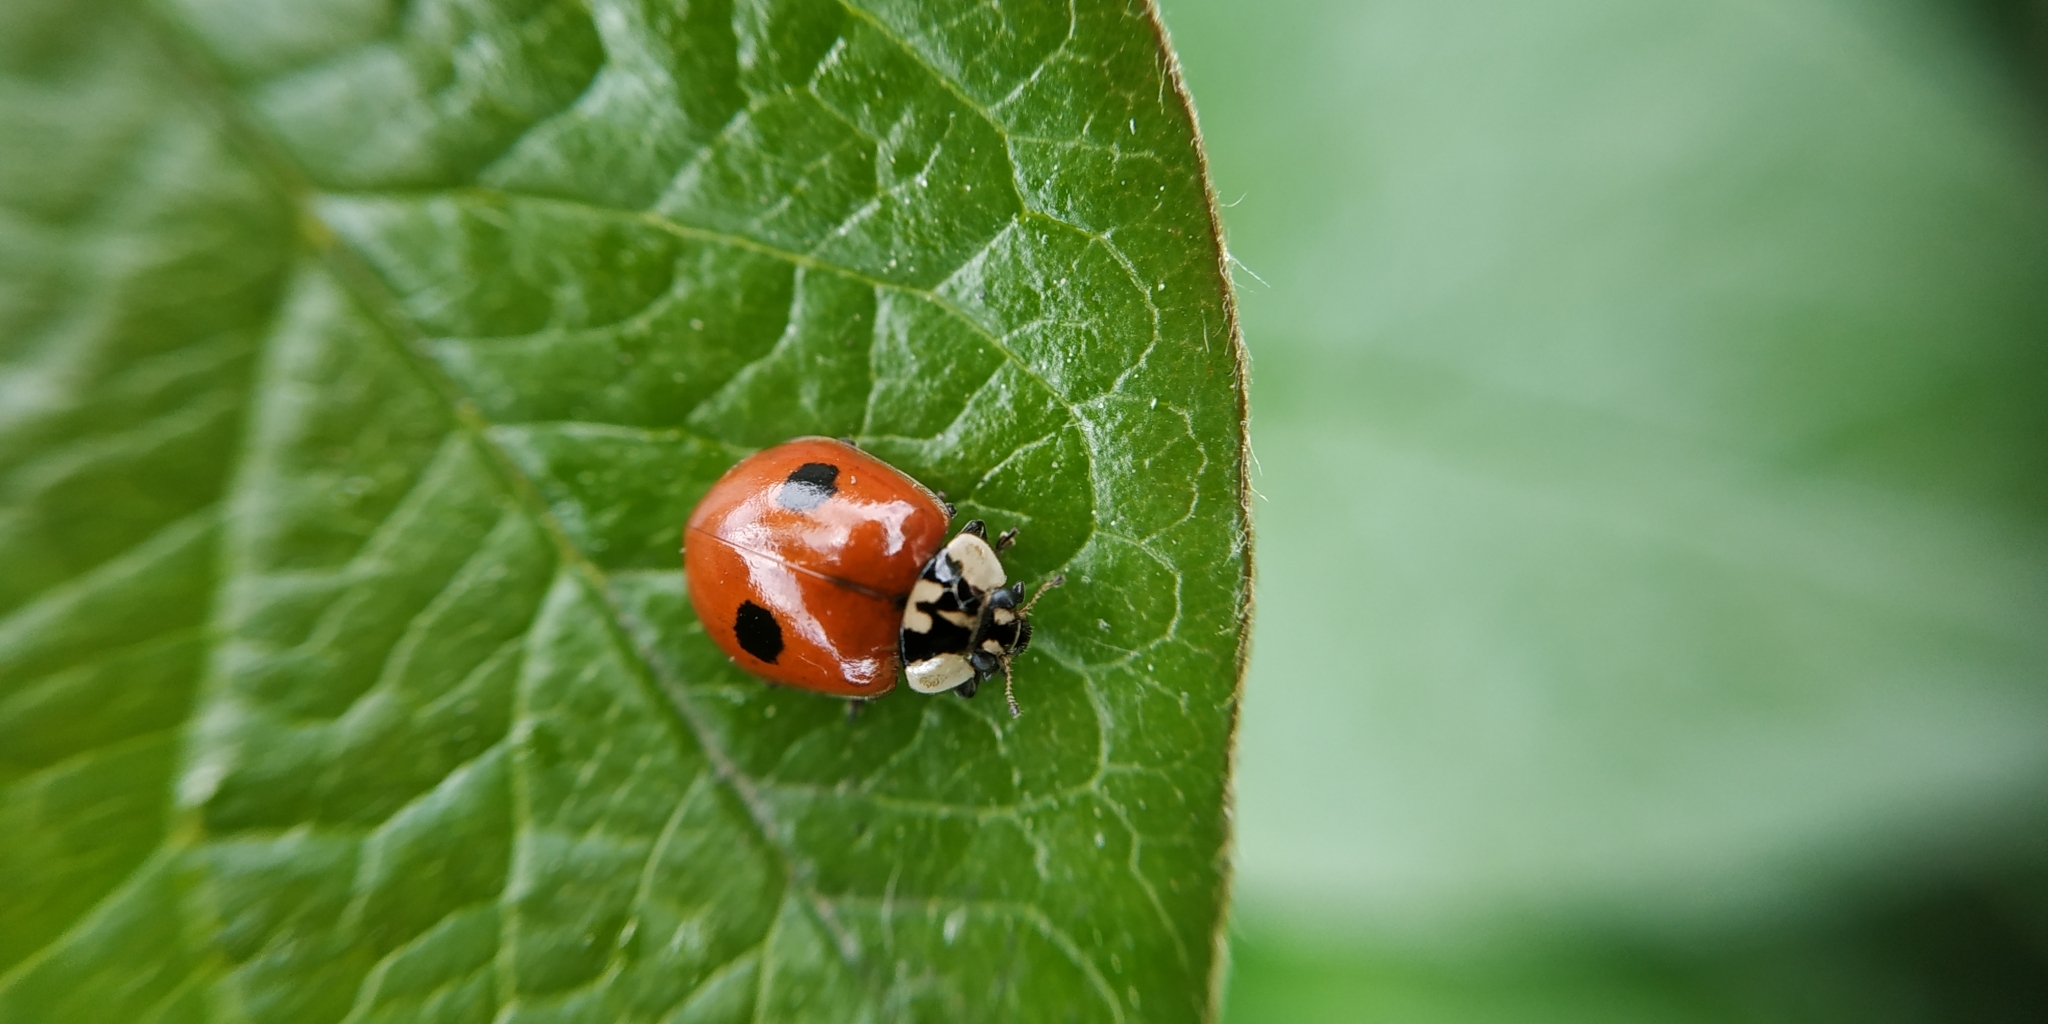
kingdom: Animalia
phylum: Arthropoda
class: Insecta
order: Coleoptera
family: Coccinellidae
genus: Adalia
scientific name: Adalia bipunctata
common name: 2-spot ladybird
